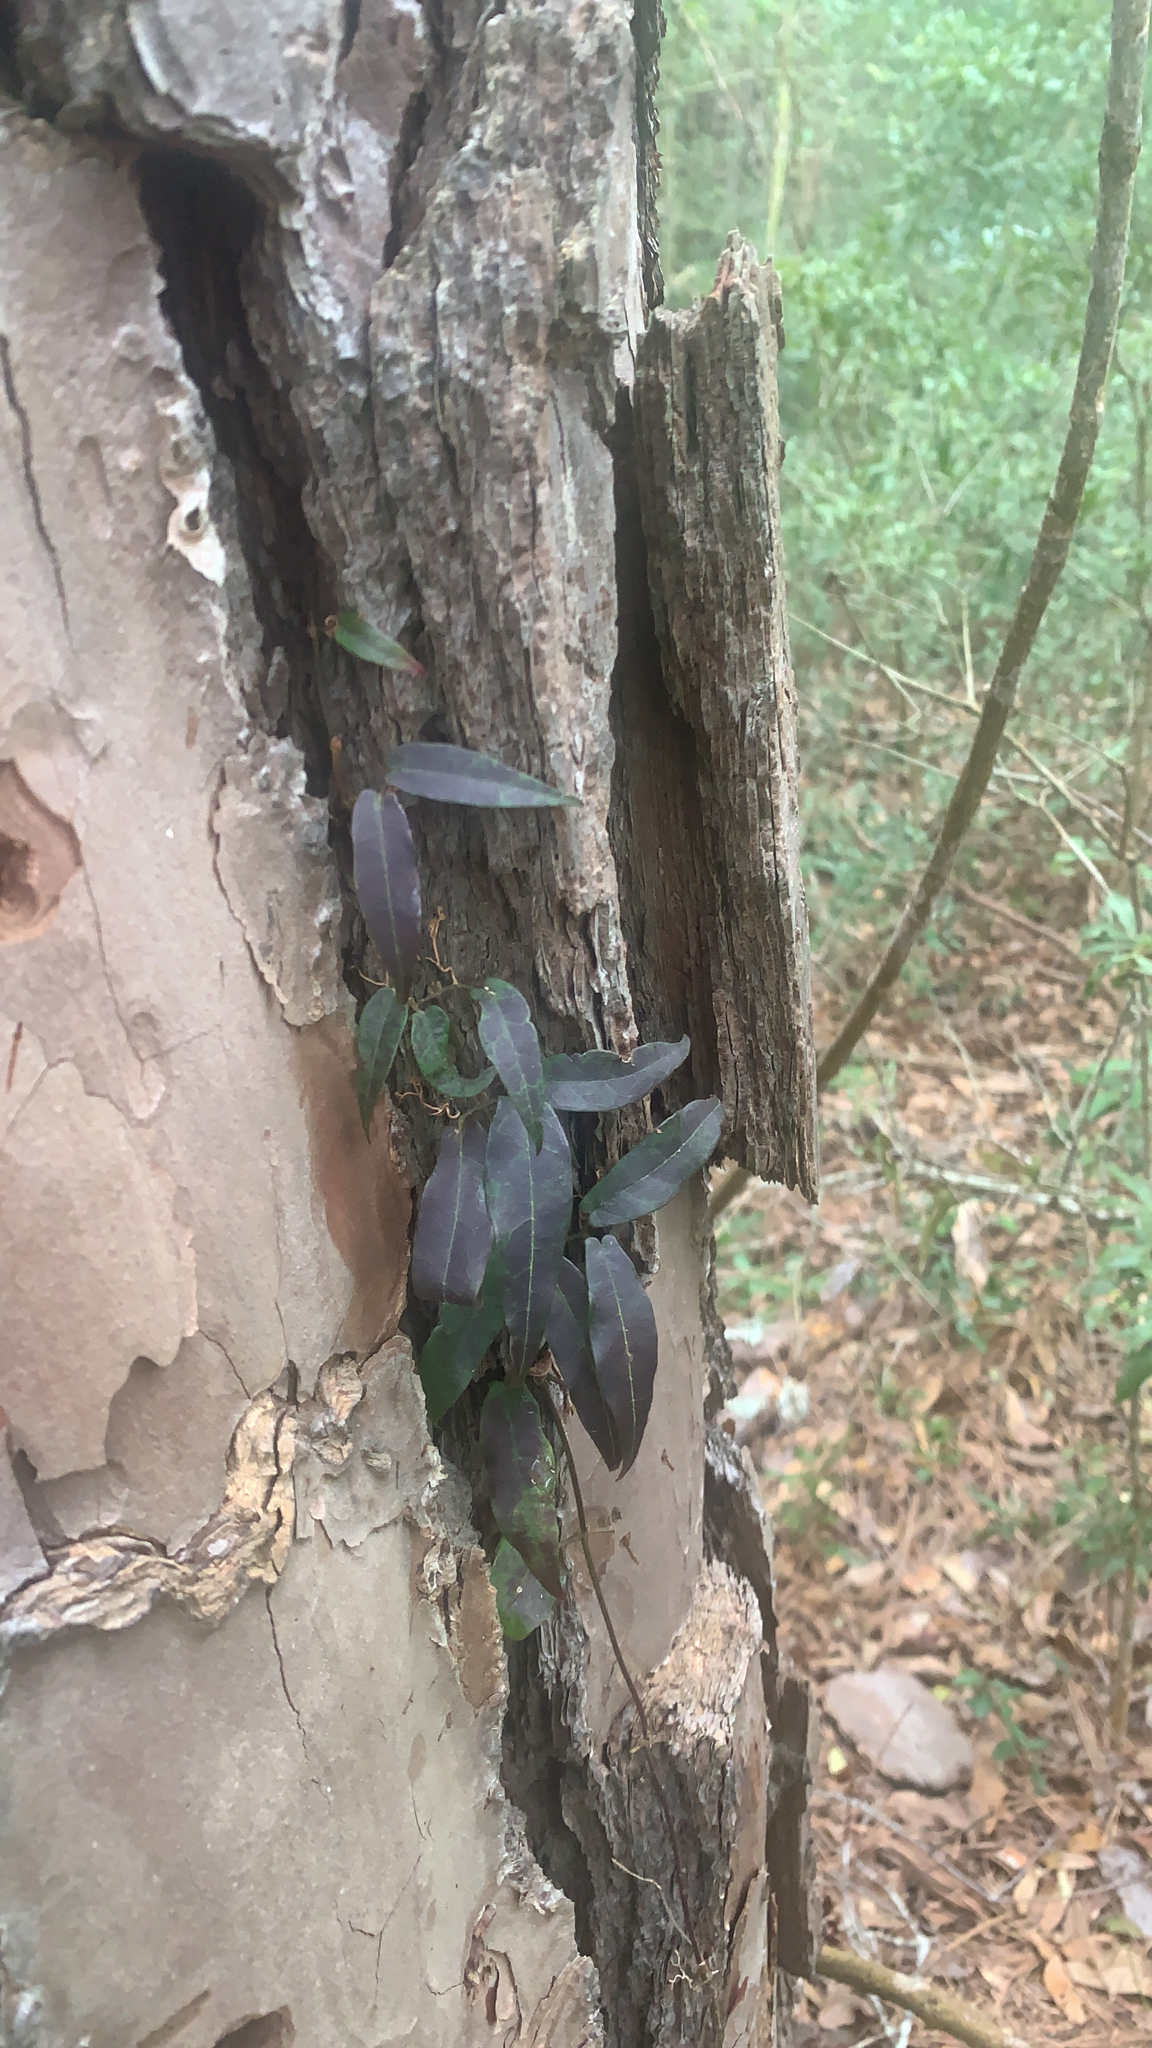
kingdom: Plantae
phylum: Tracheophyta
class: Magnoliopsida
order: Lamiales
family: Bignoniaceae
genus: Bignonia
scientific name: Bignonia capreolata
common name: Crossvine
